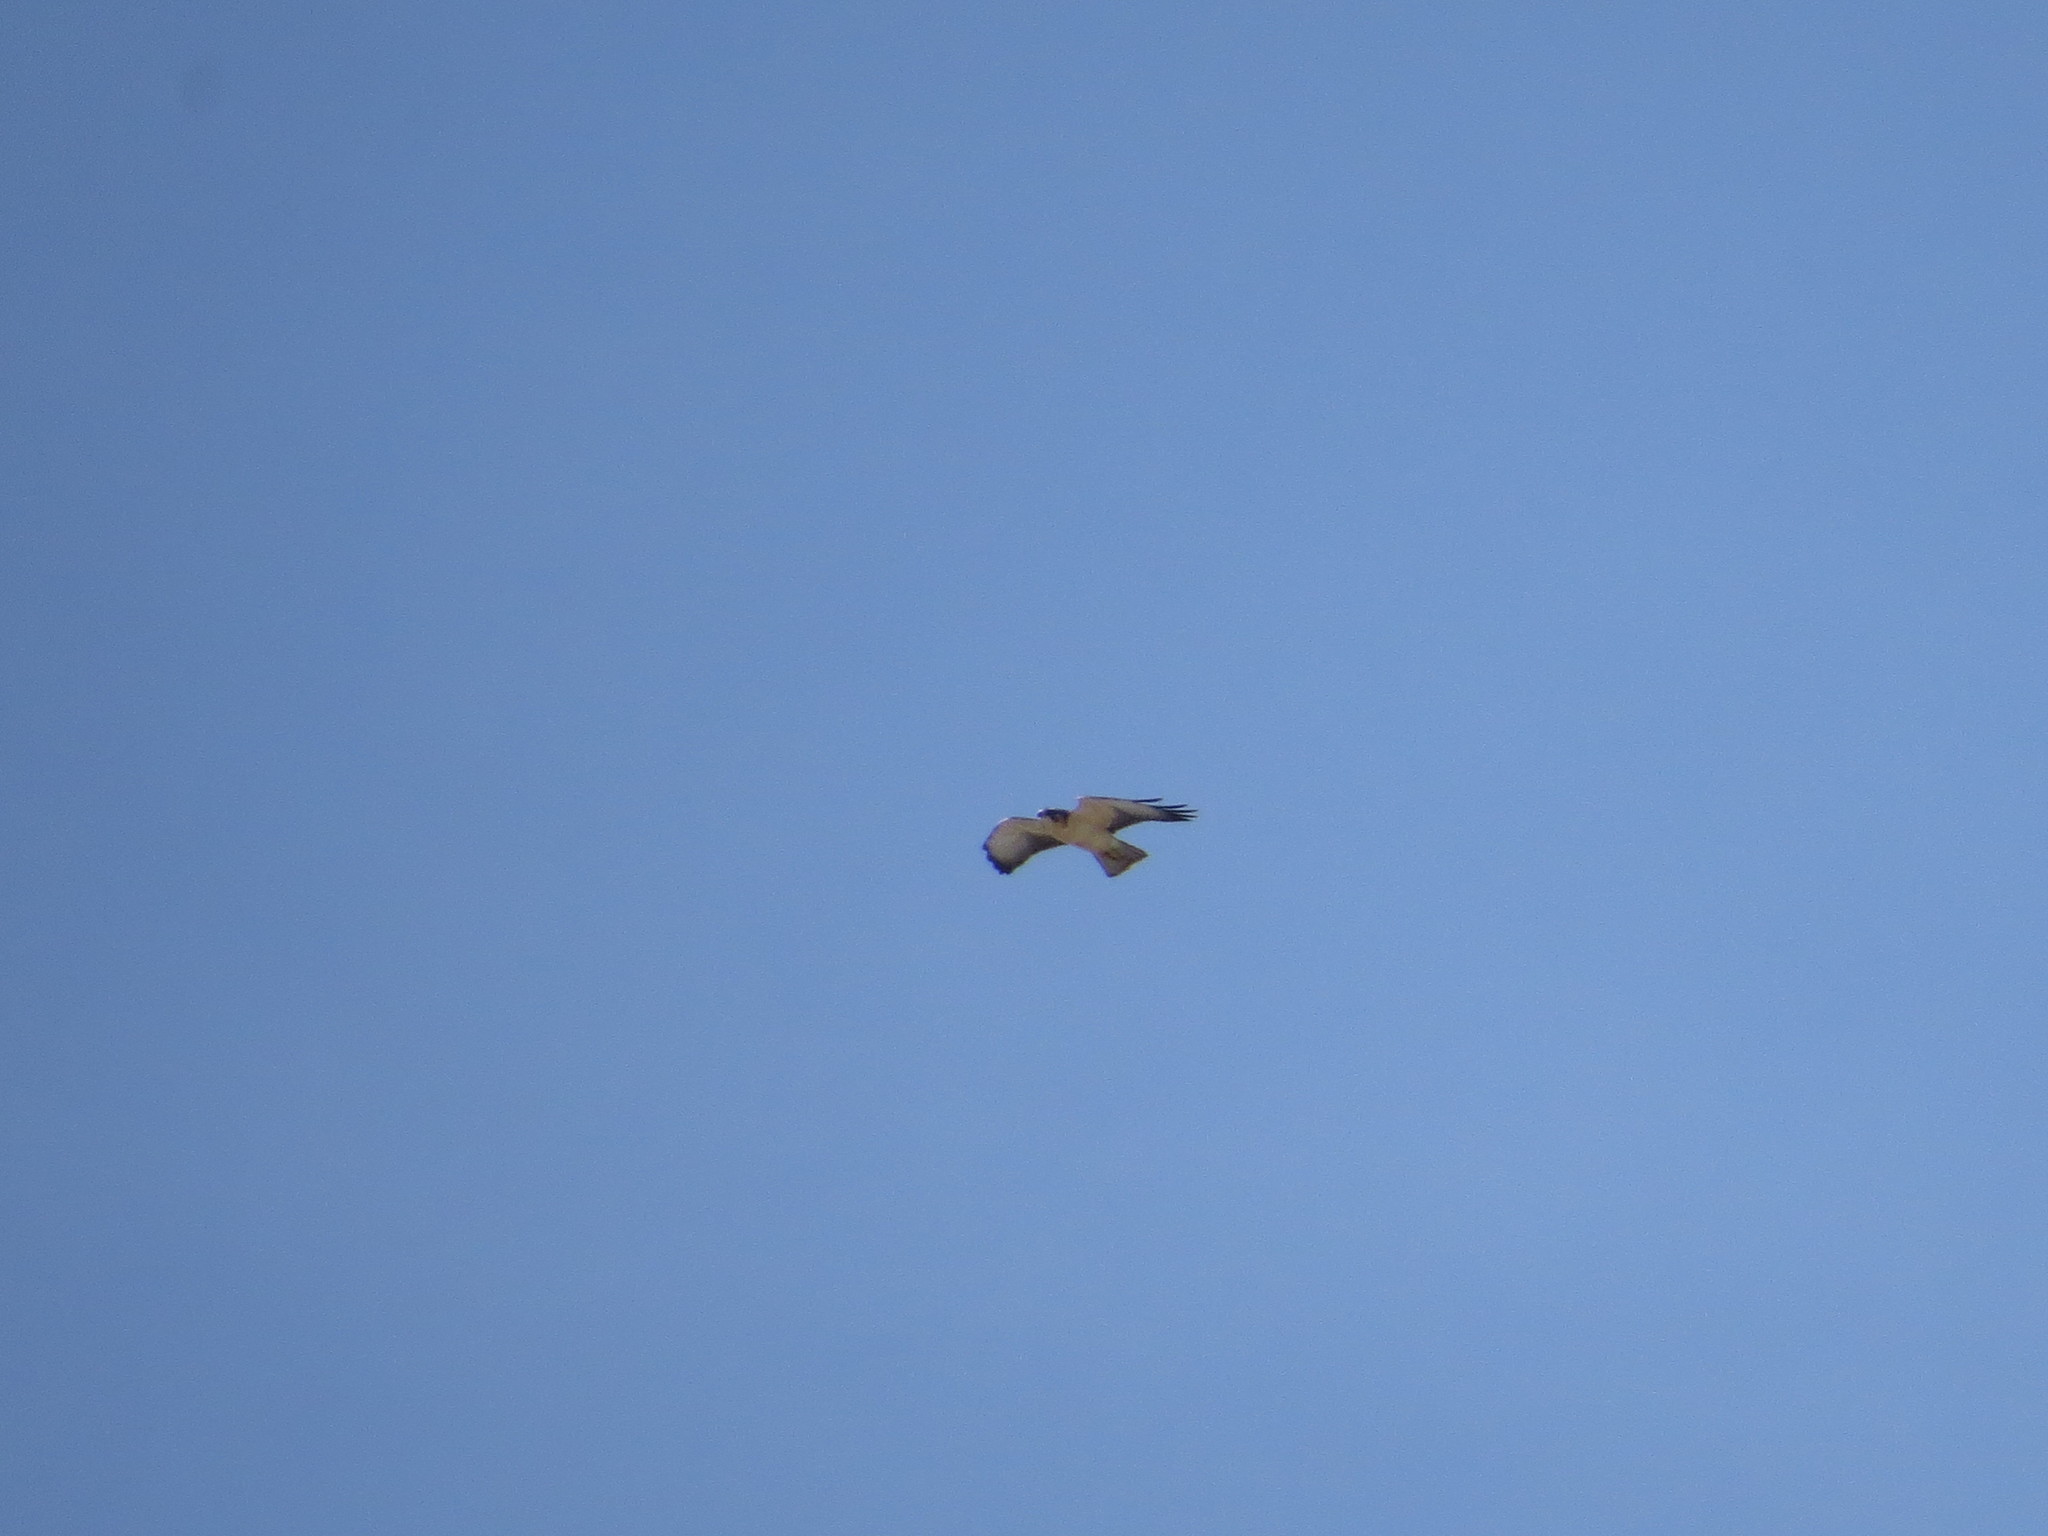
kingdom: Animalia
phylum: Chordata
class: Aves
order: Accipitriformes
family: Accipitridae
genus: Buteo
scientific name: Buteo brachyurus
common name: Short-tailed hawk
